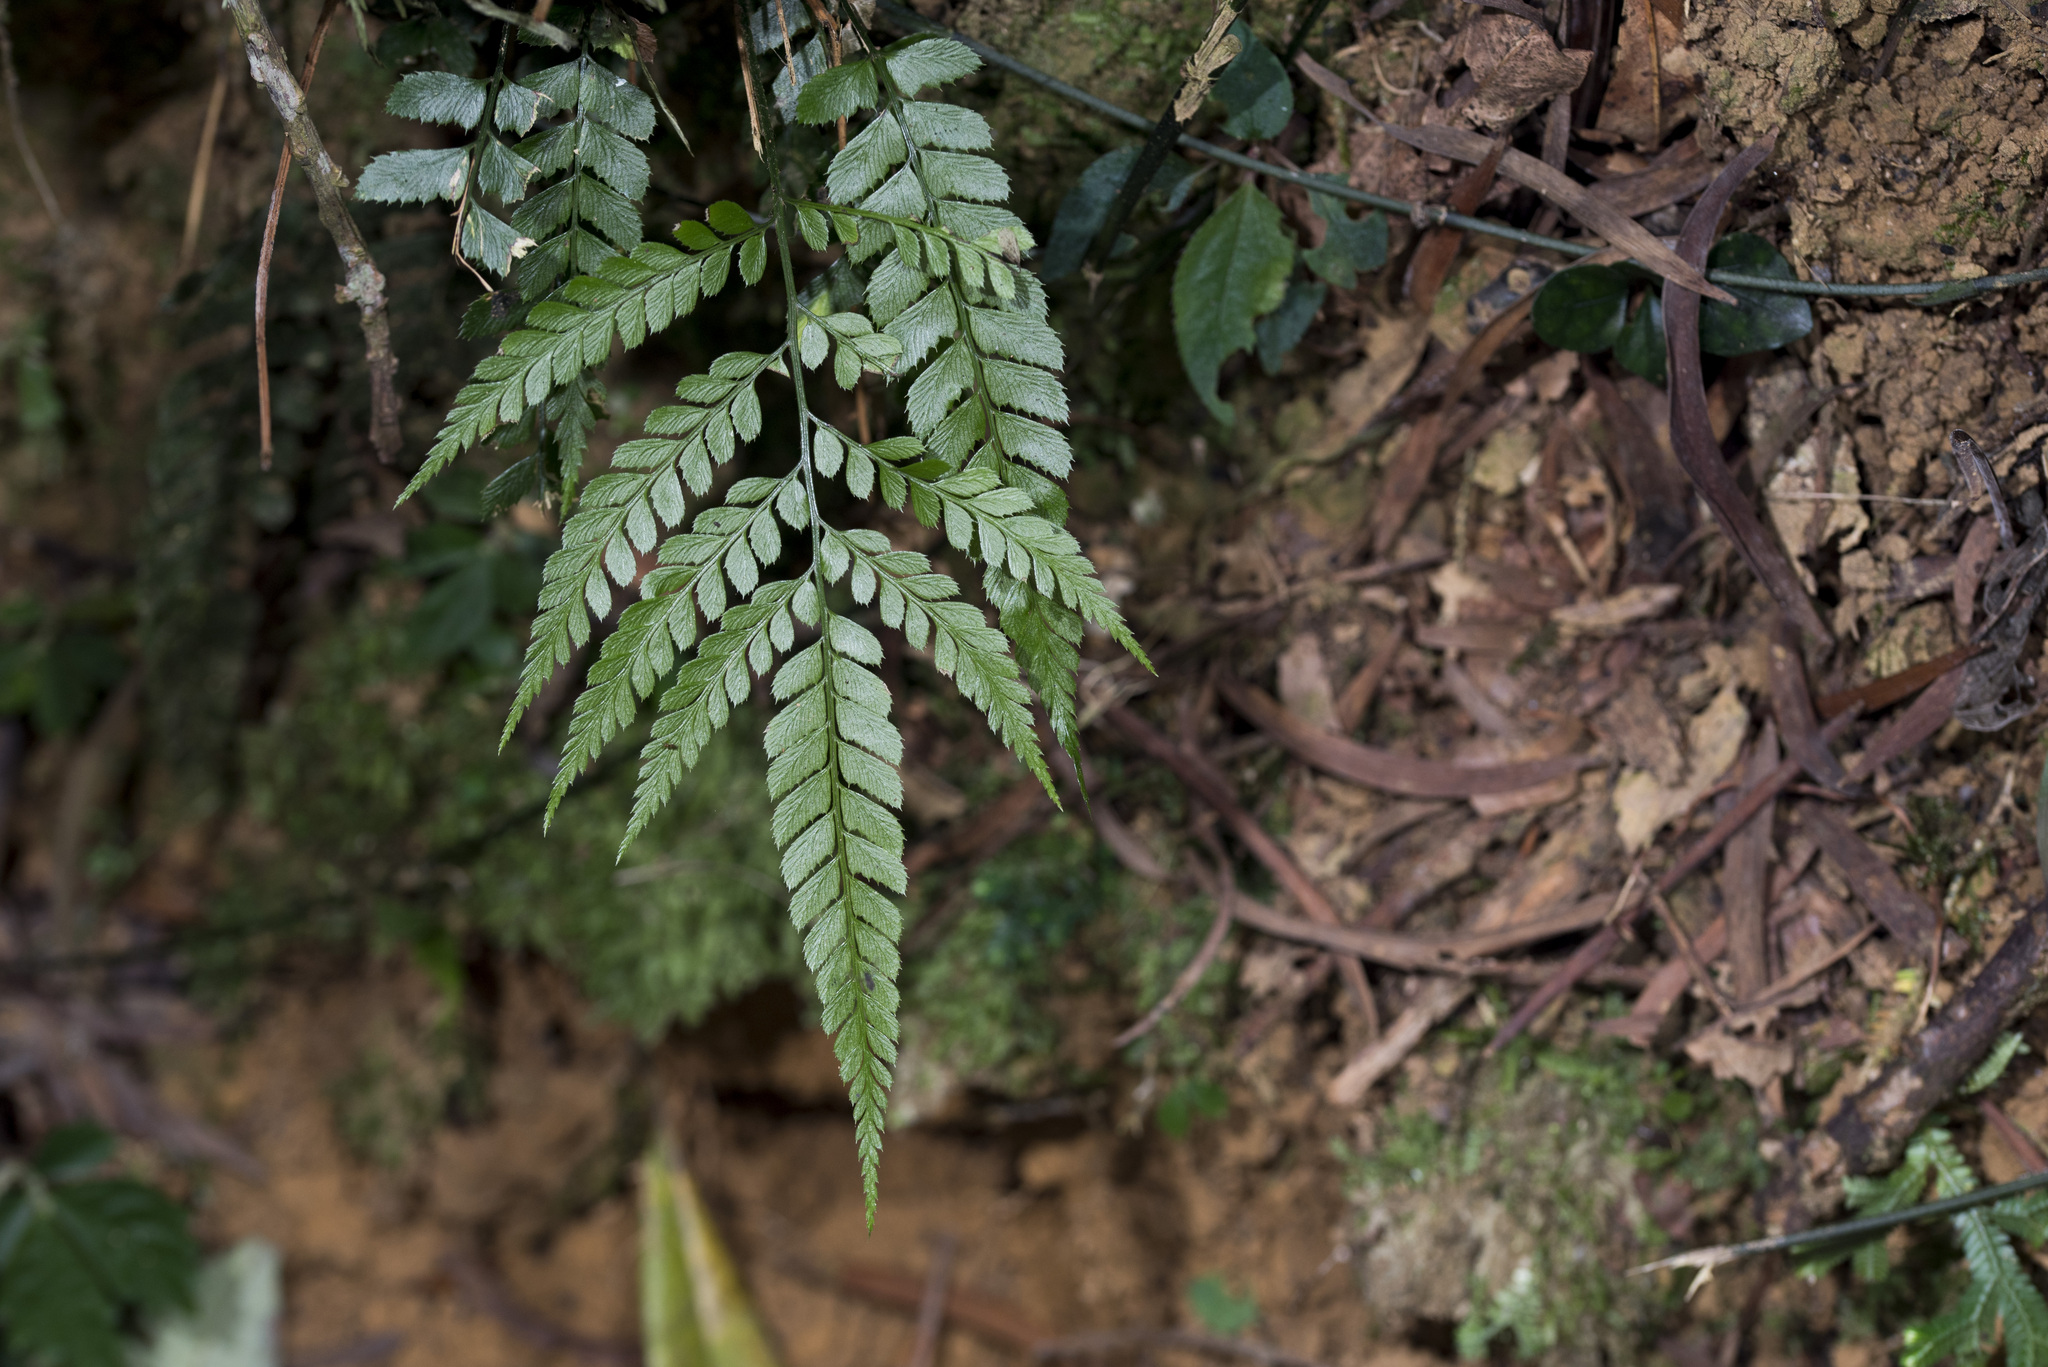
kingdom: Plantae
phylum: Tracheophyta
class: Polypodiopsida
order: Polypodiales
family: Dryopteridaceae
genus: Arachniodes
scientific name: Arachniodes rhomboidea
